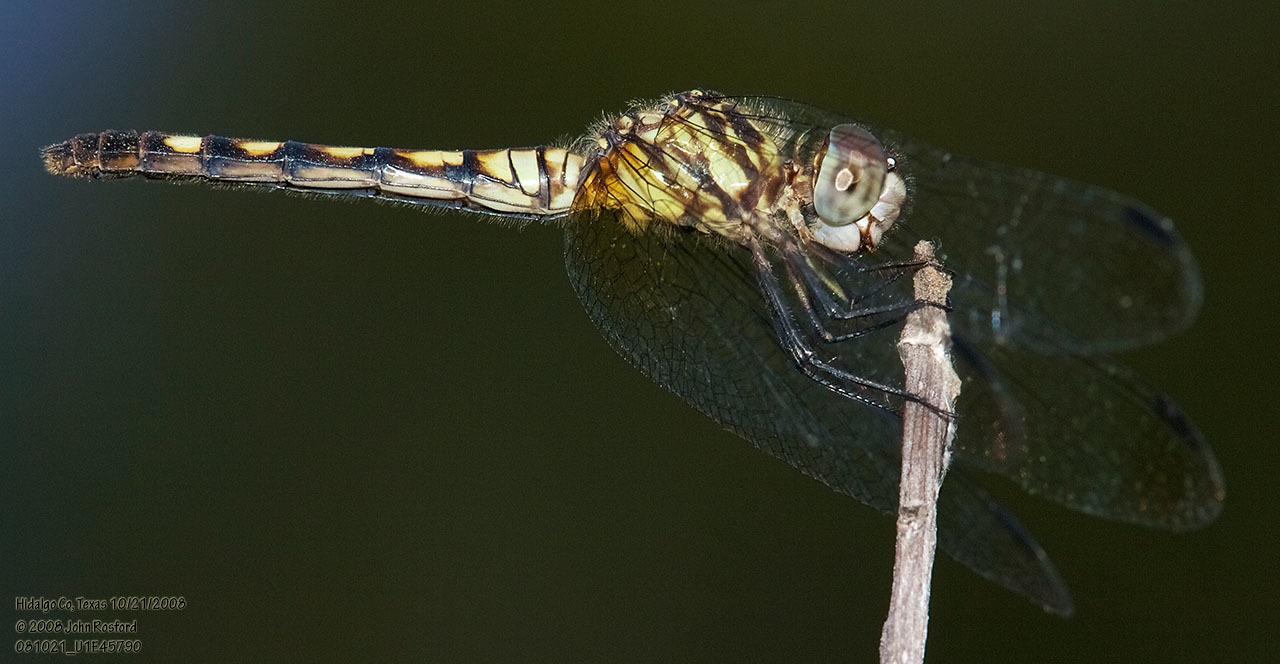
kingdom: Animalia
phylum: Arthropoda
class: Insecta
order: Odonata
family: Libellulidae
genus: Micrathyria
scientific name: Micrathyria hagenii
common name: Thornbush dasher
